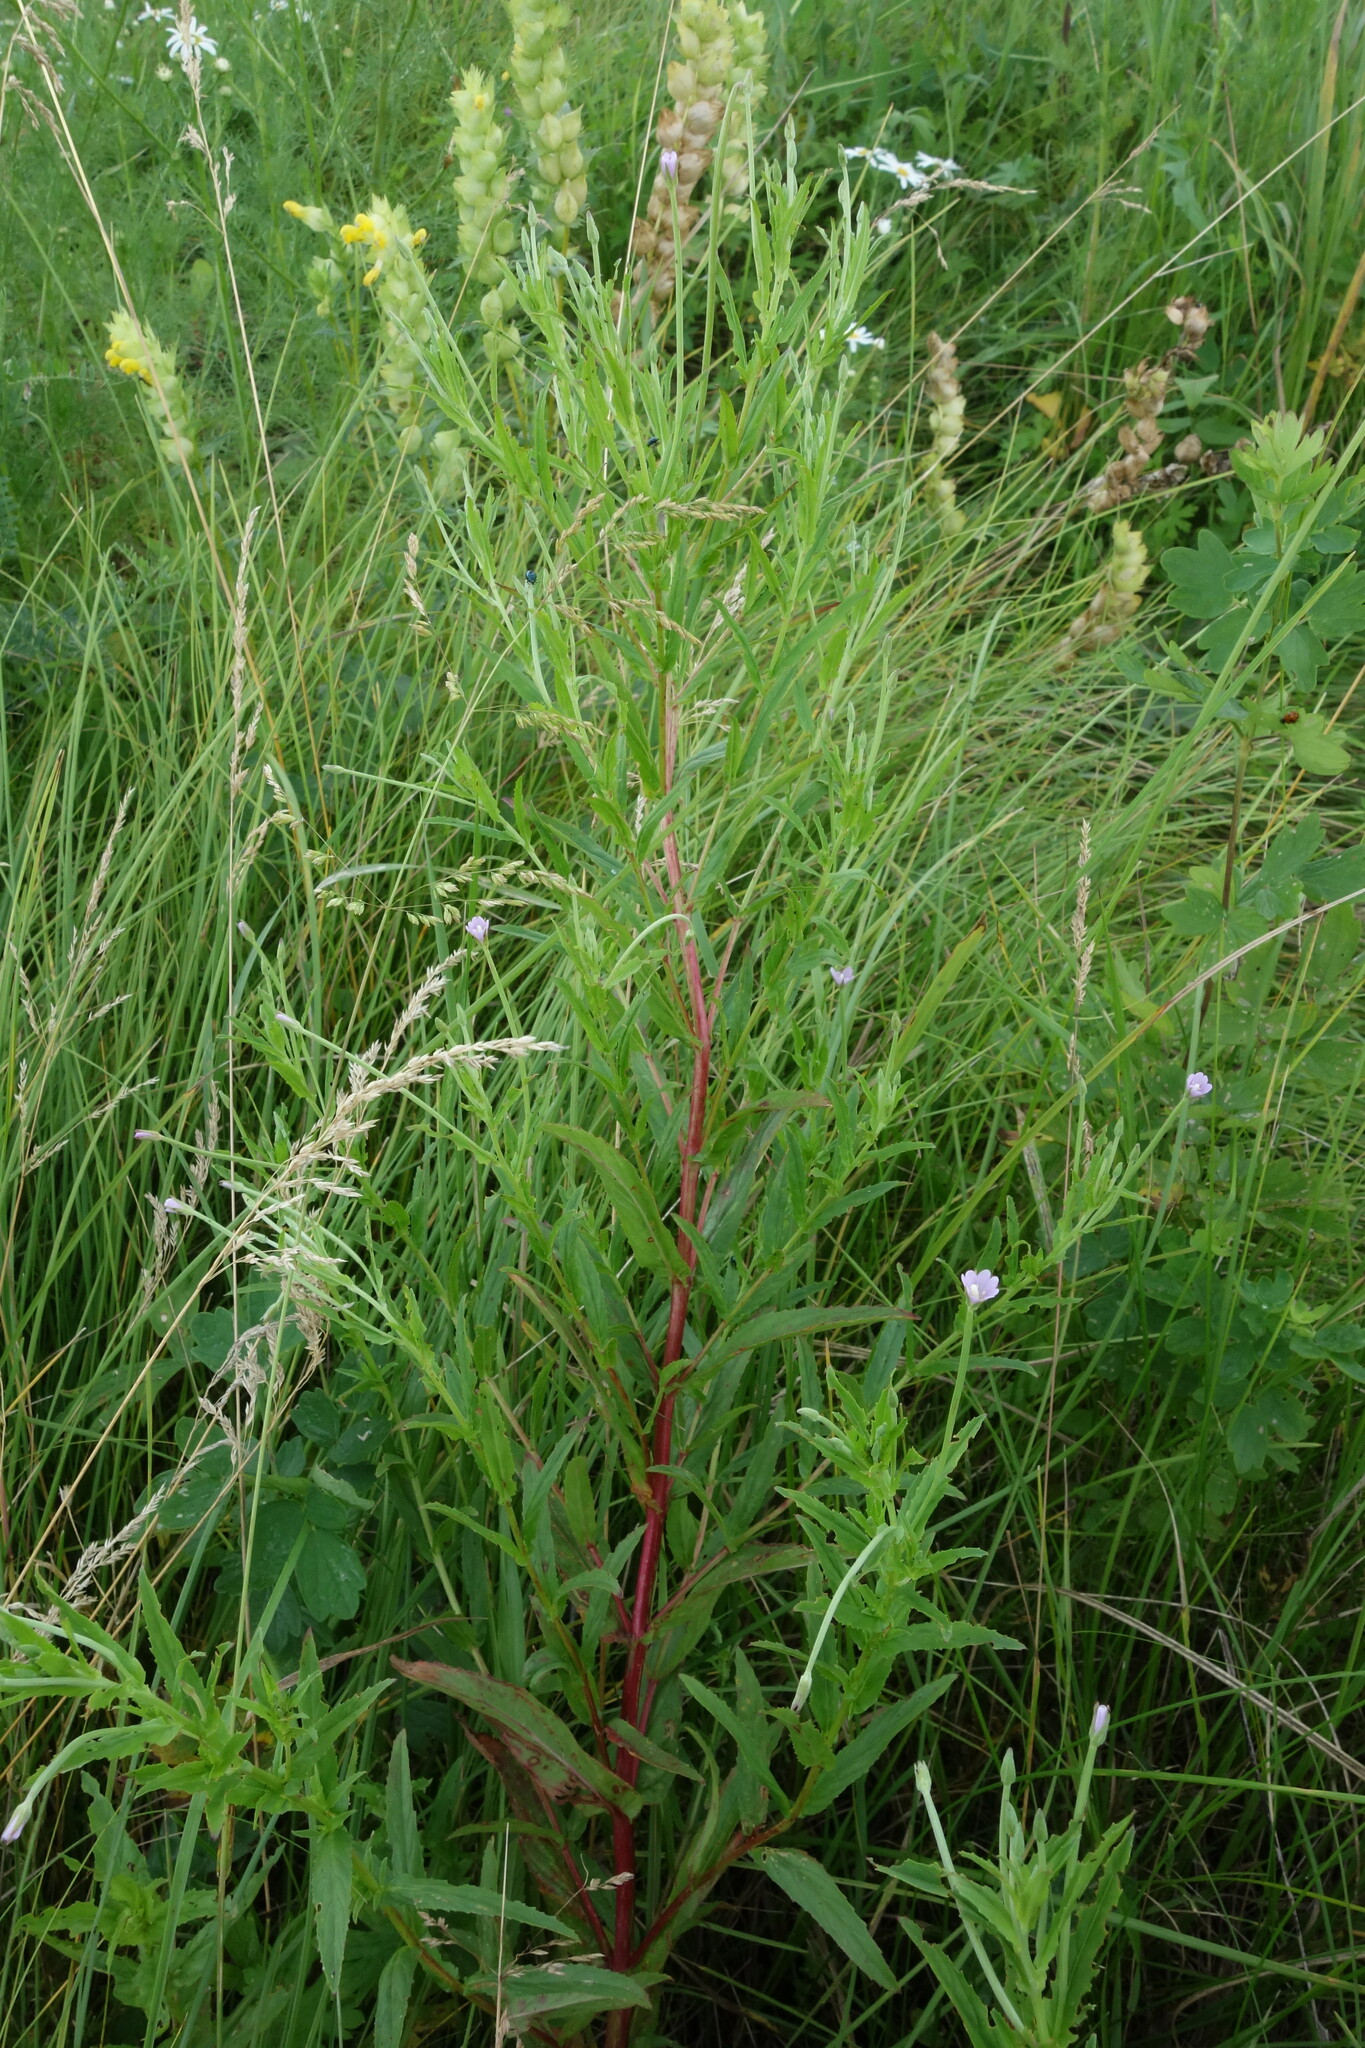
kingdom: Plantae
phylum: Tracheophyta
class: Magnoliopsida
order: Myrtales
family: Onagraceae
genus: Epilobium
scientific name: Epilobium tetragonum
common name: Square-stemmed willowherb
